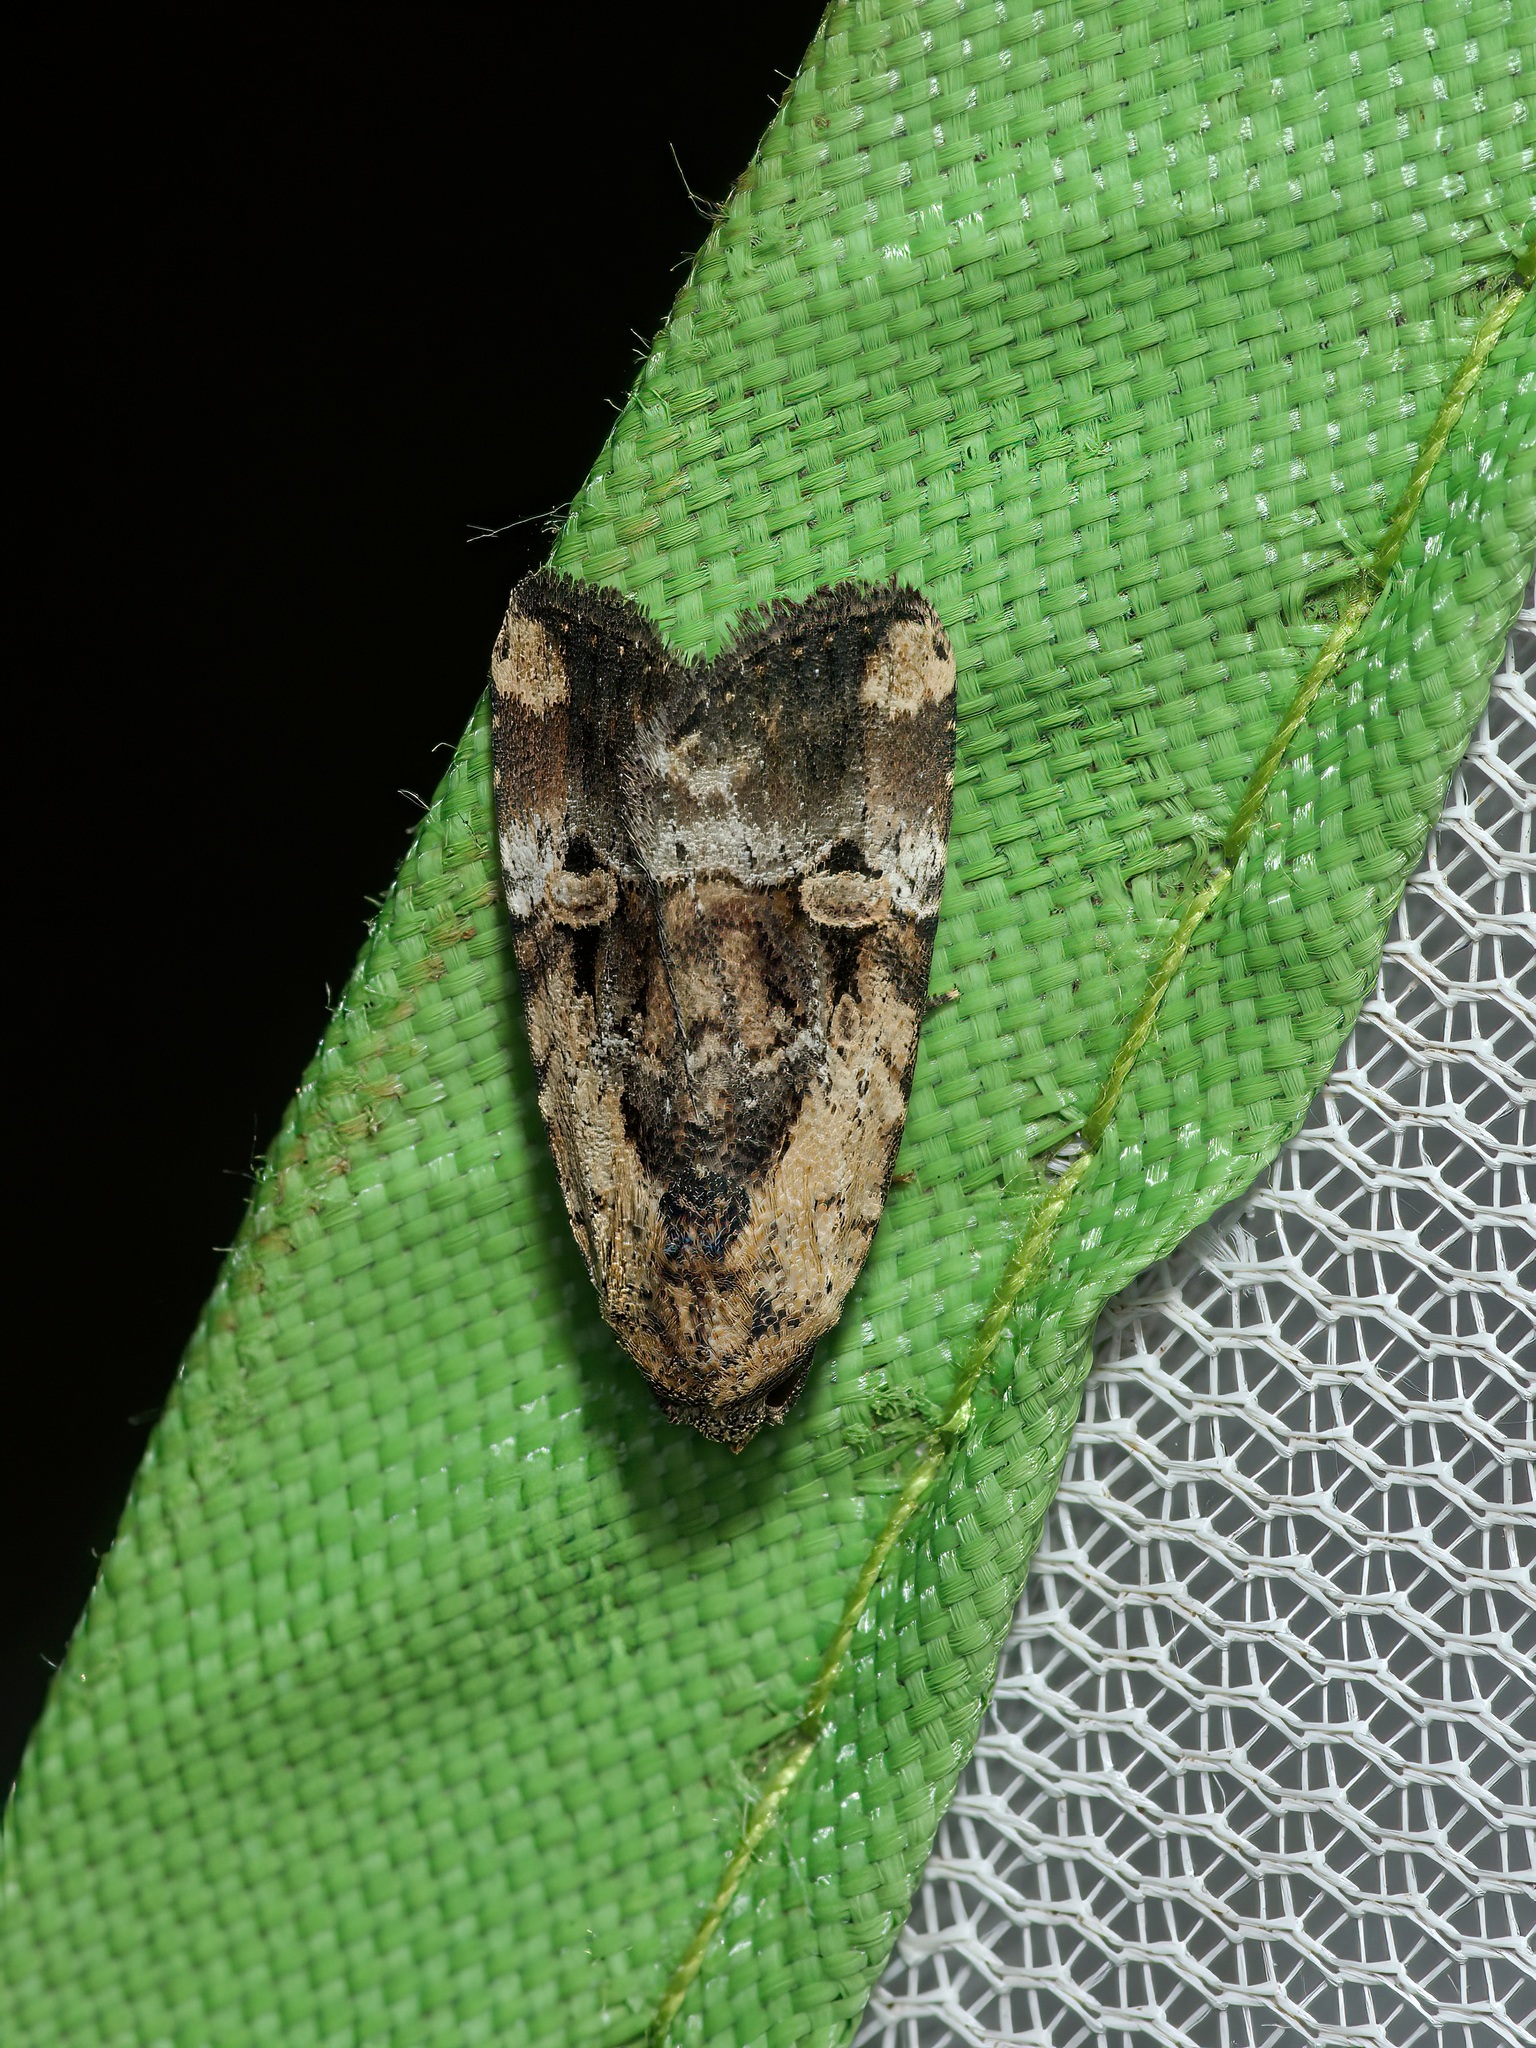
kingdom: Animalia
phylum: Arthropoda
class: Insecta
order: Lepidoptera
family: Noctuidae
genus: Elaphria
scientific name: Elaphria chalcedonia
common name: Chalcedony midget
